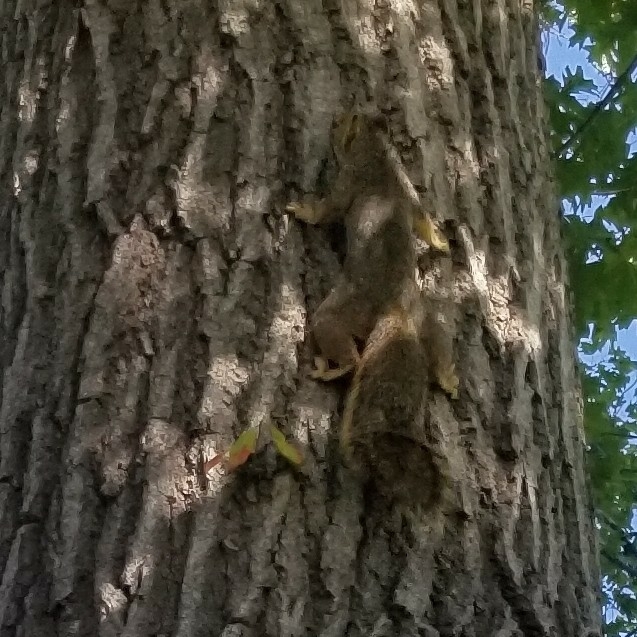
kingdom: Animalia
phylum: Chordata
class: Mammalia
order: Rodentia
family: Sciuridae
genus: Sciurus
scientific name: Sciurus niger
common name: Fox squirrel
